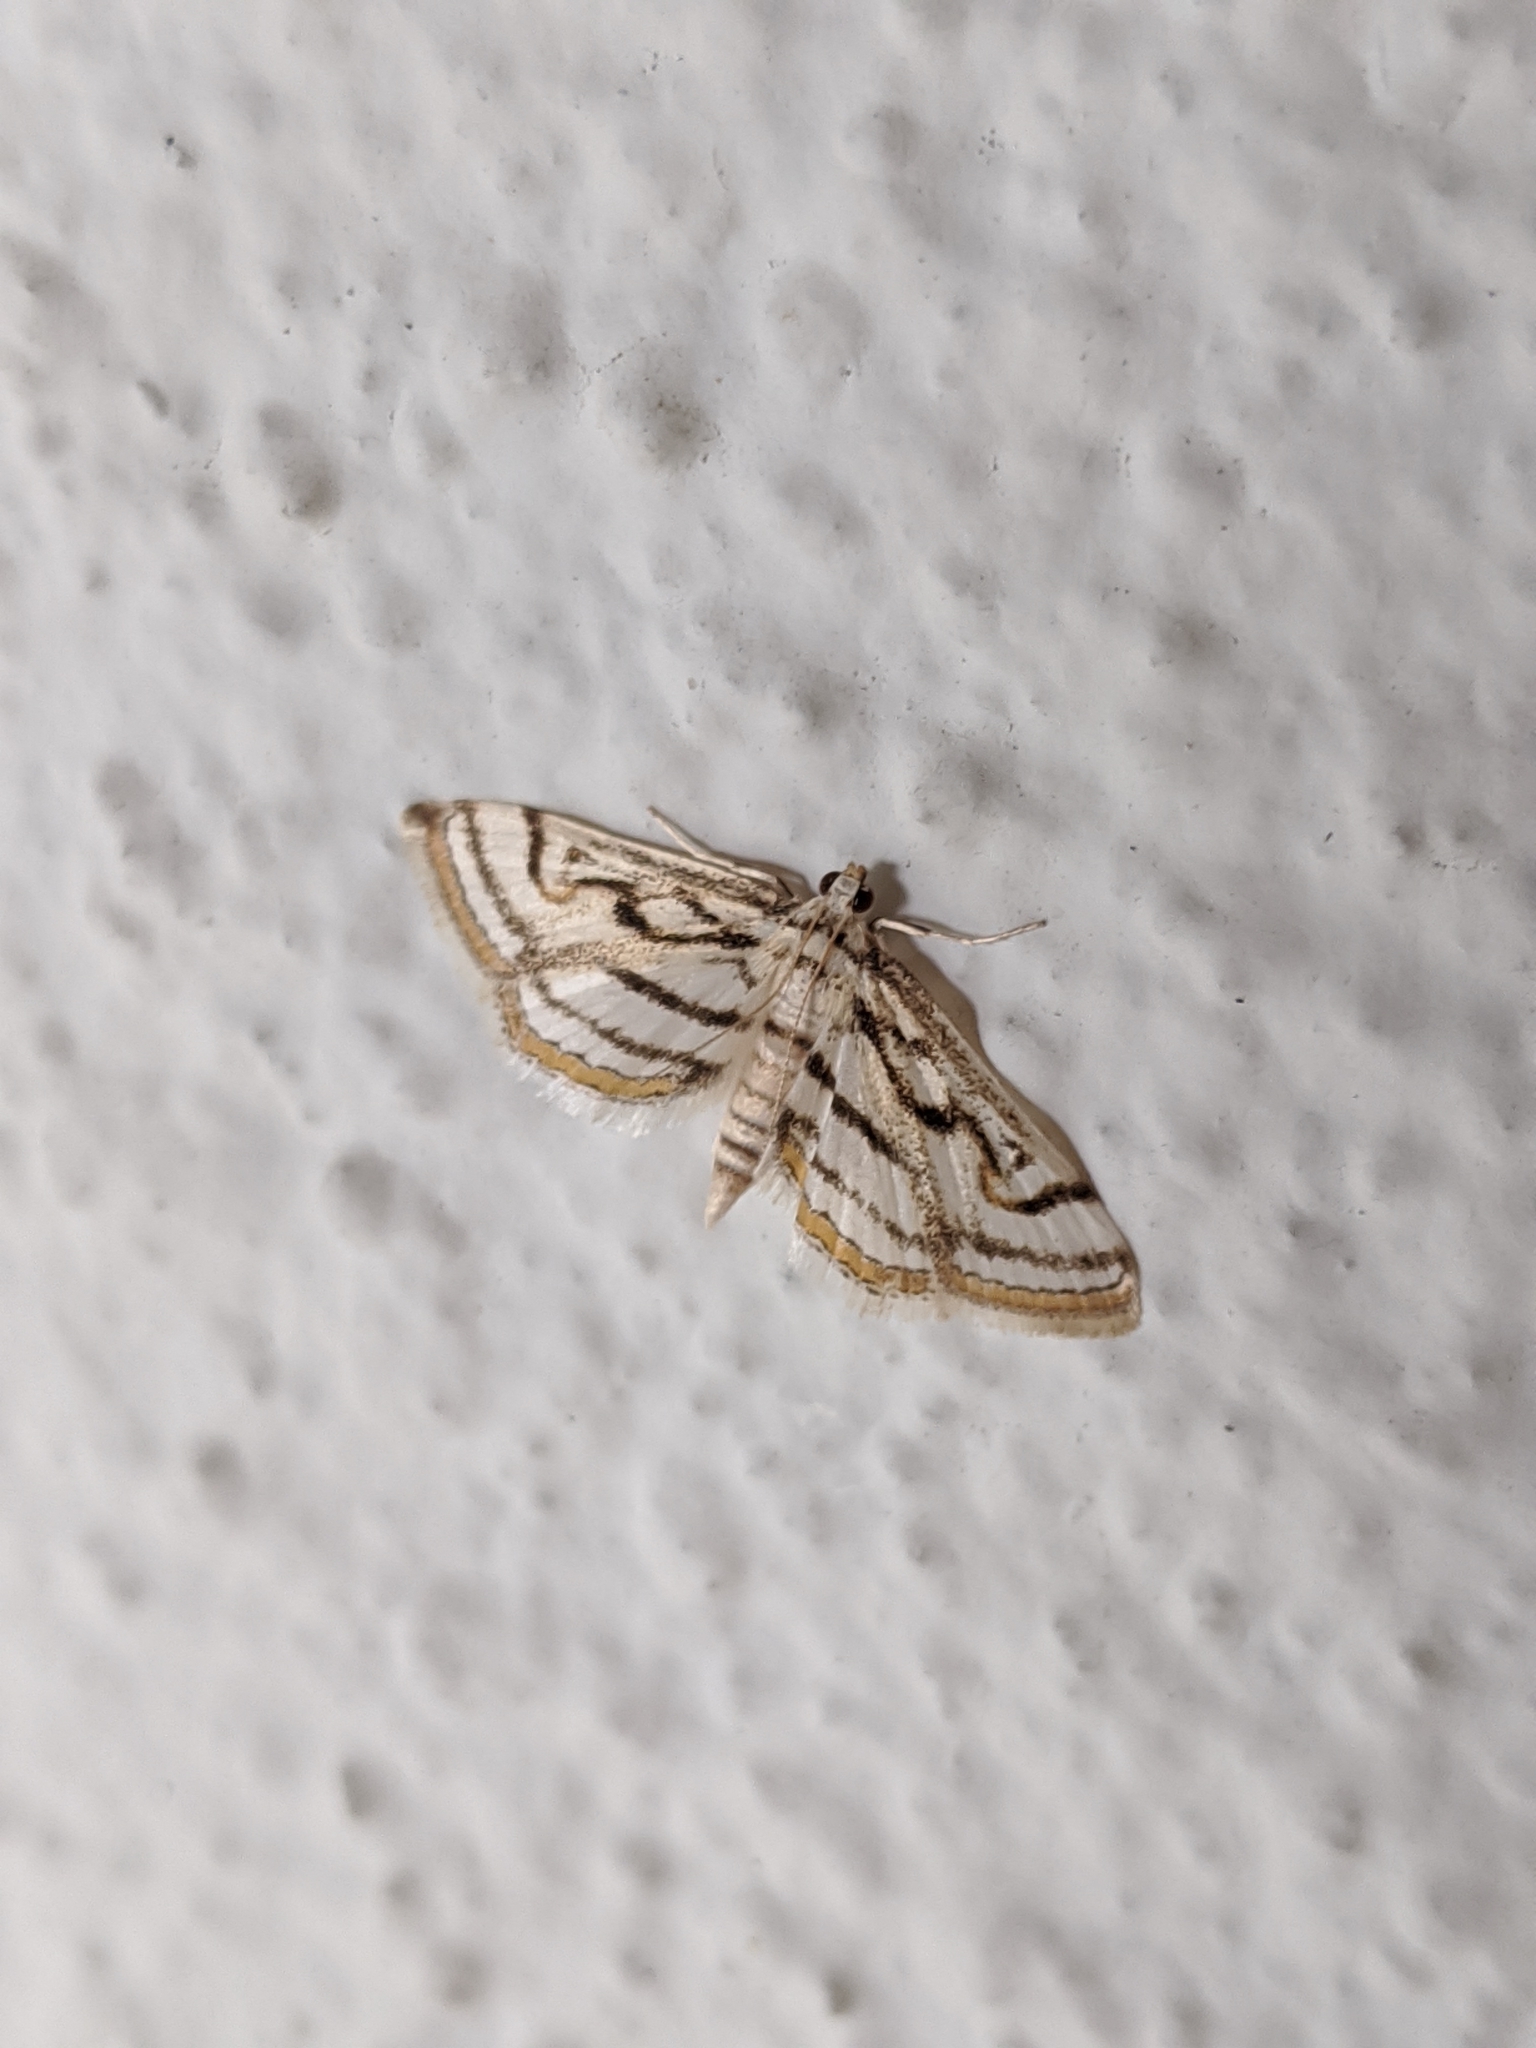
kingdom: Animalia
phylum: Arthropoda
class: Insecta
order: Lepidoptera
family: Crambidae
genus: Parapoynx
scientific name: Parapoynx badiusalis
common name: Chestnut-marked pondweed moth
